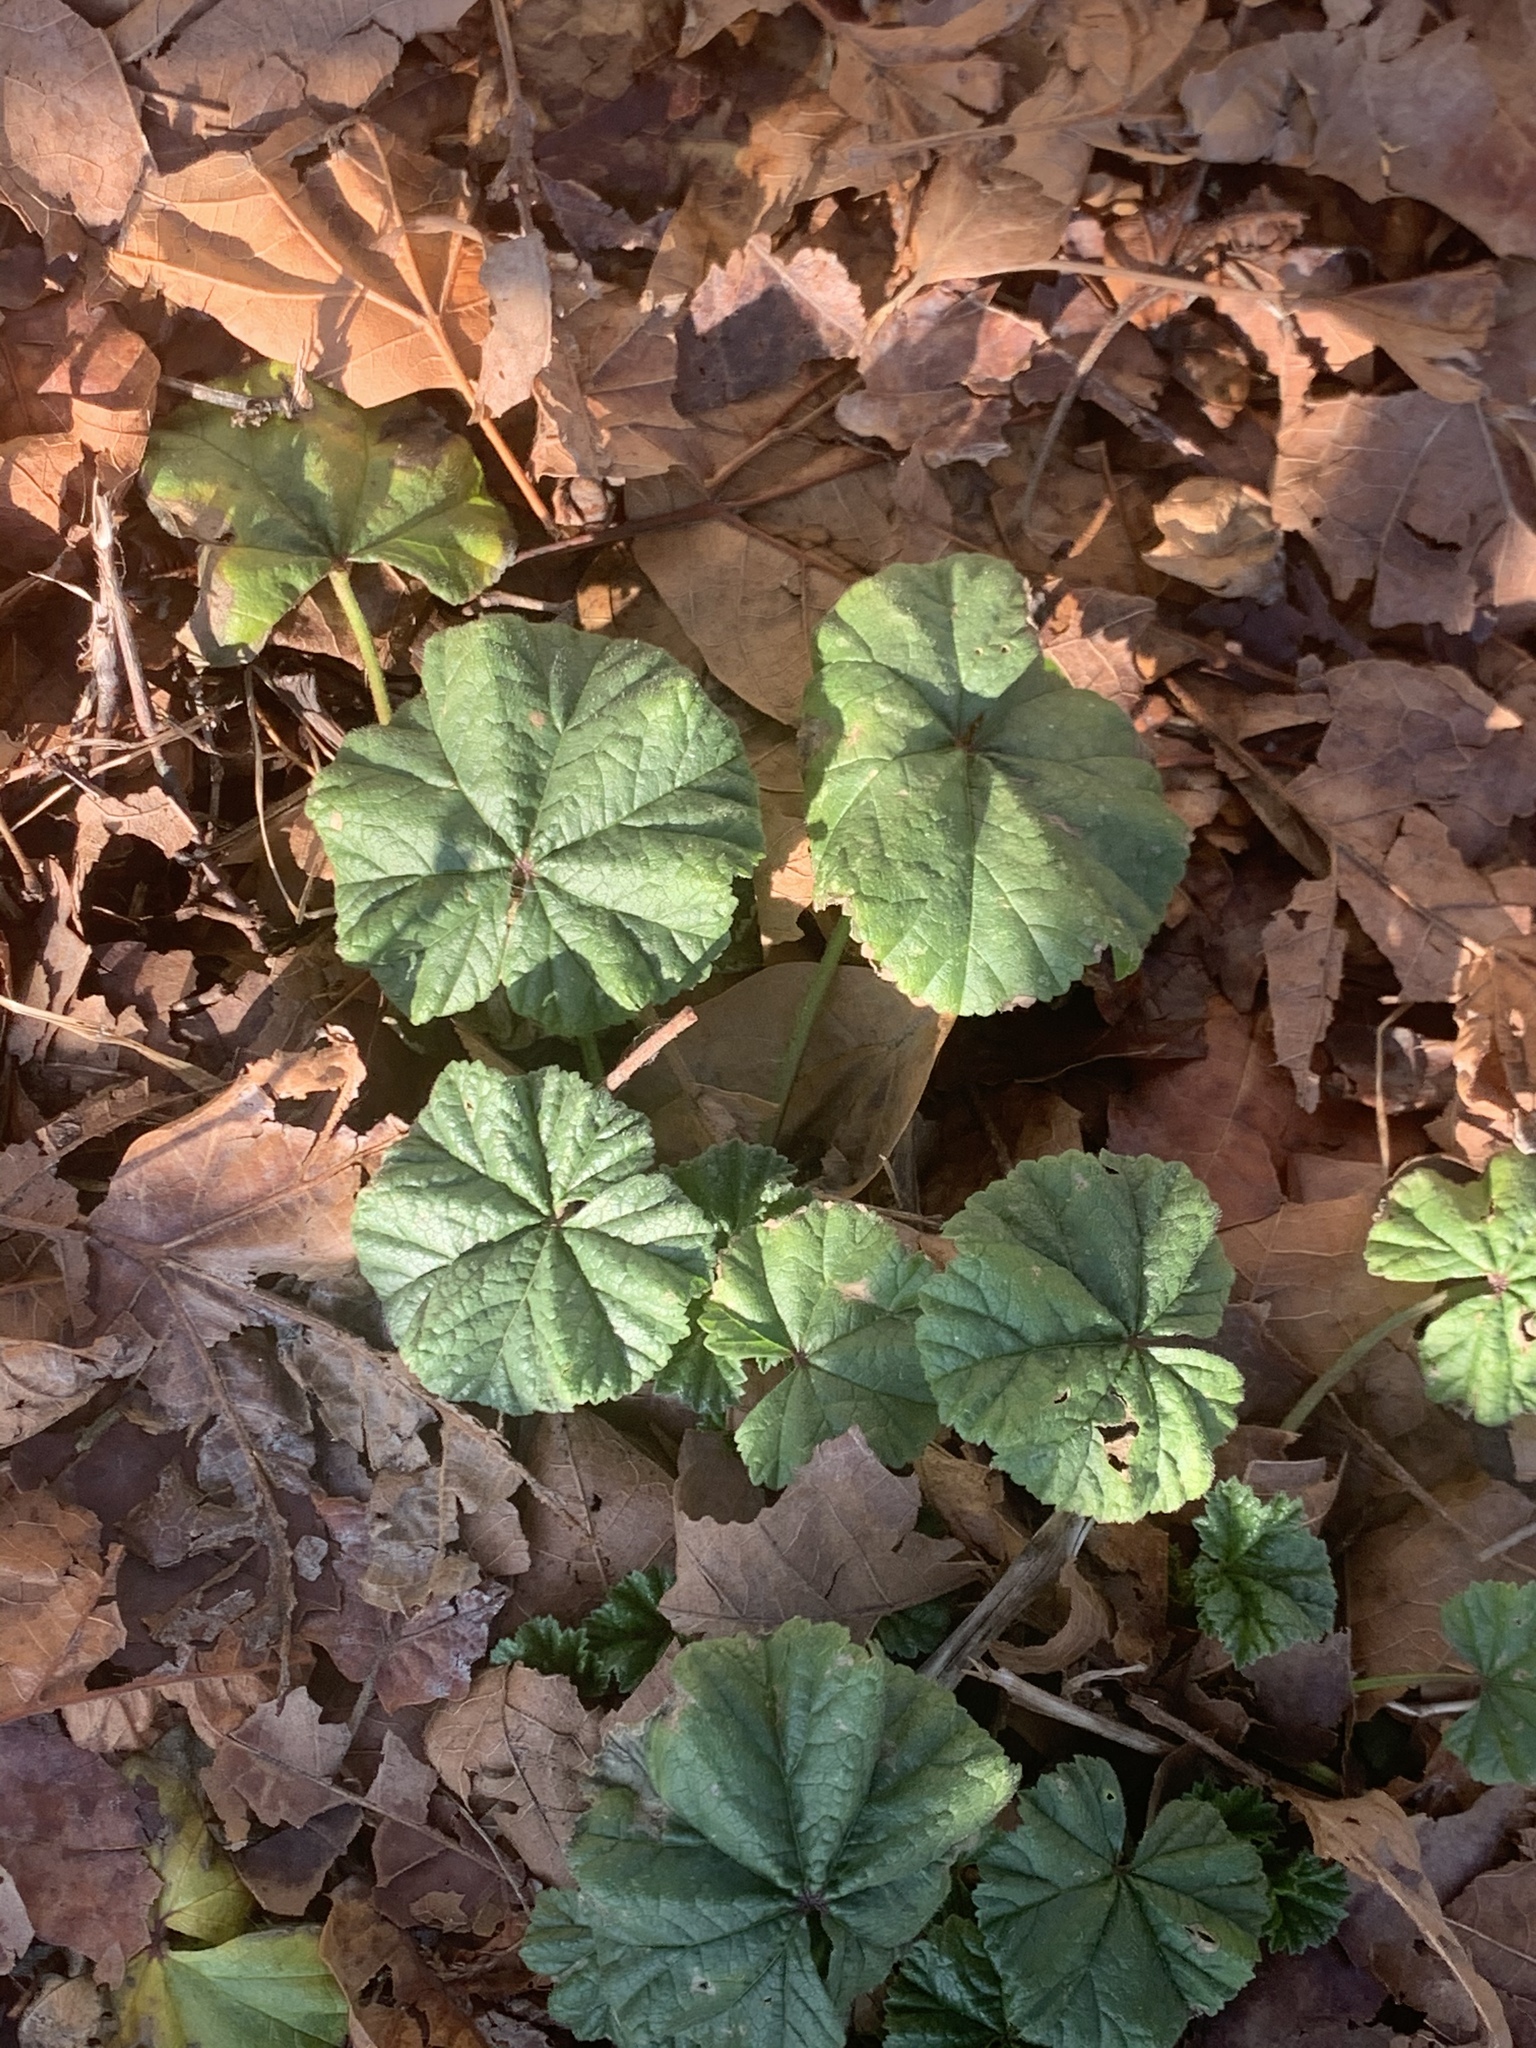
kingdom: Plantae
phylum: Tracheophyta
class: Magnoliopsida
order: Malvales
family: Malvaceae
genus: Malva
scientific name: Malva neglecta
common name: Common mallow
